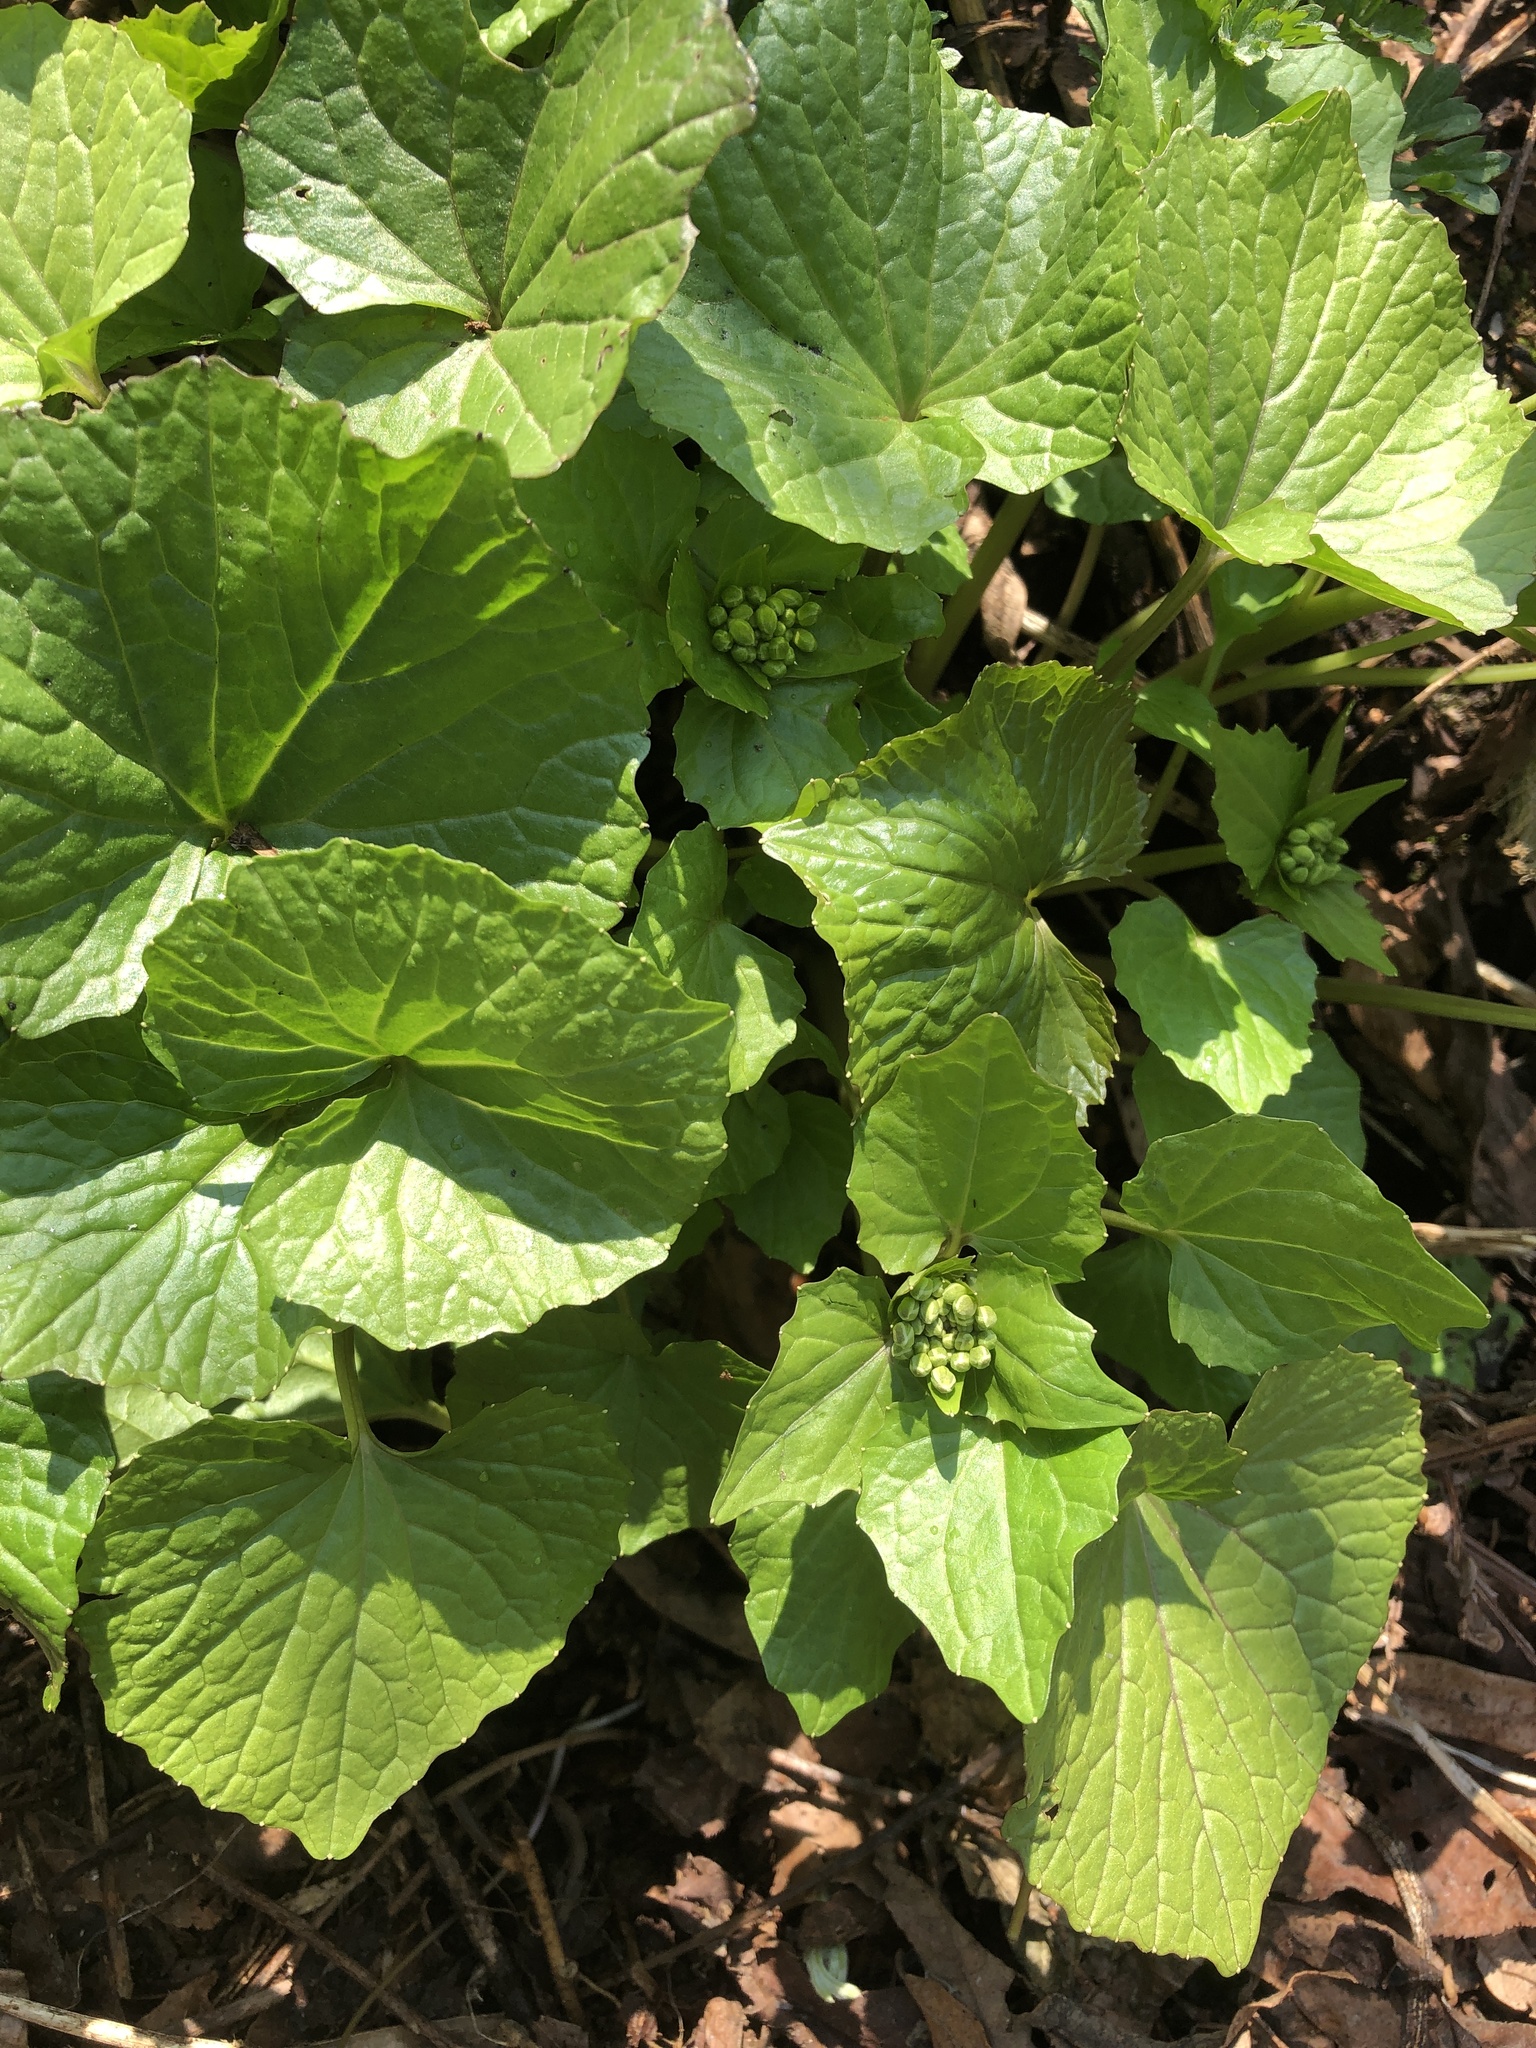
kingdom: Plantae
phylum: Tracheophyta
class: Magnoliopsida
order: Brassicales
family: Brassicaceae
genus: Eutrema
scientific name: Eutrema japonicum
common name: Japanese-horseradish
